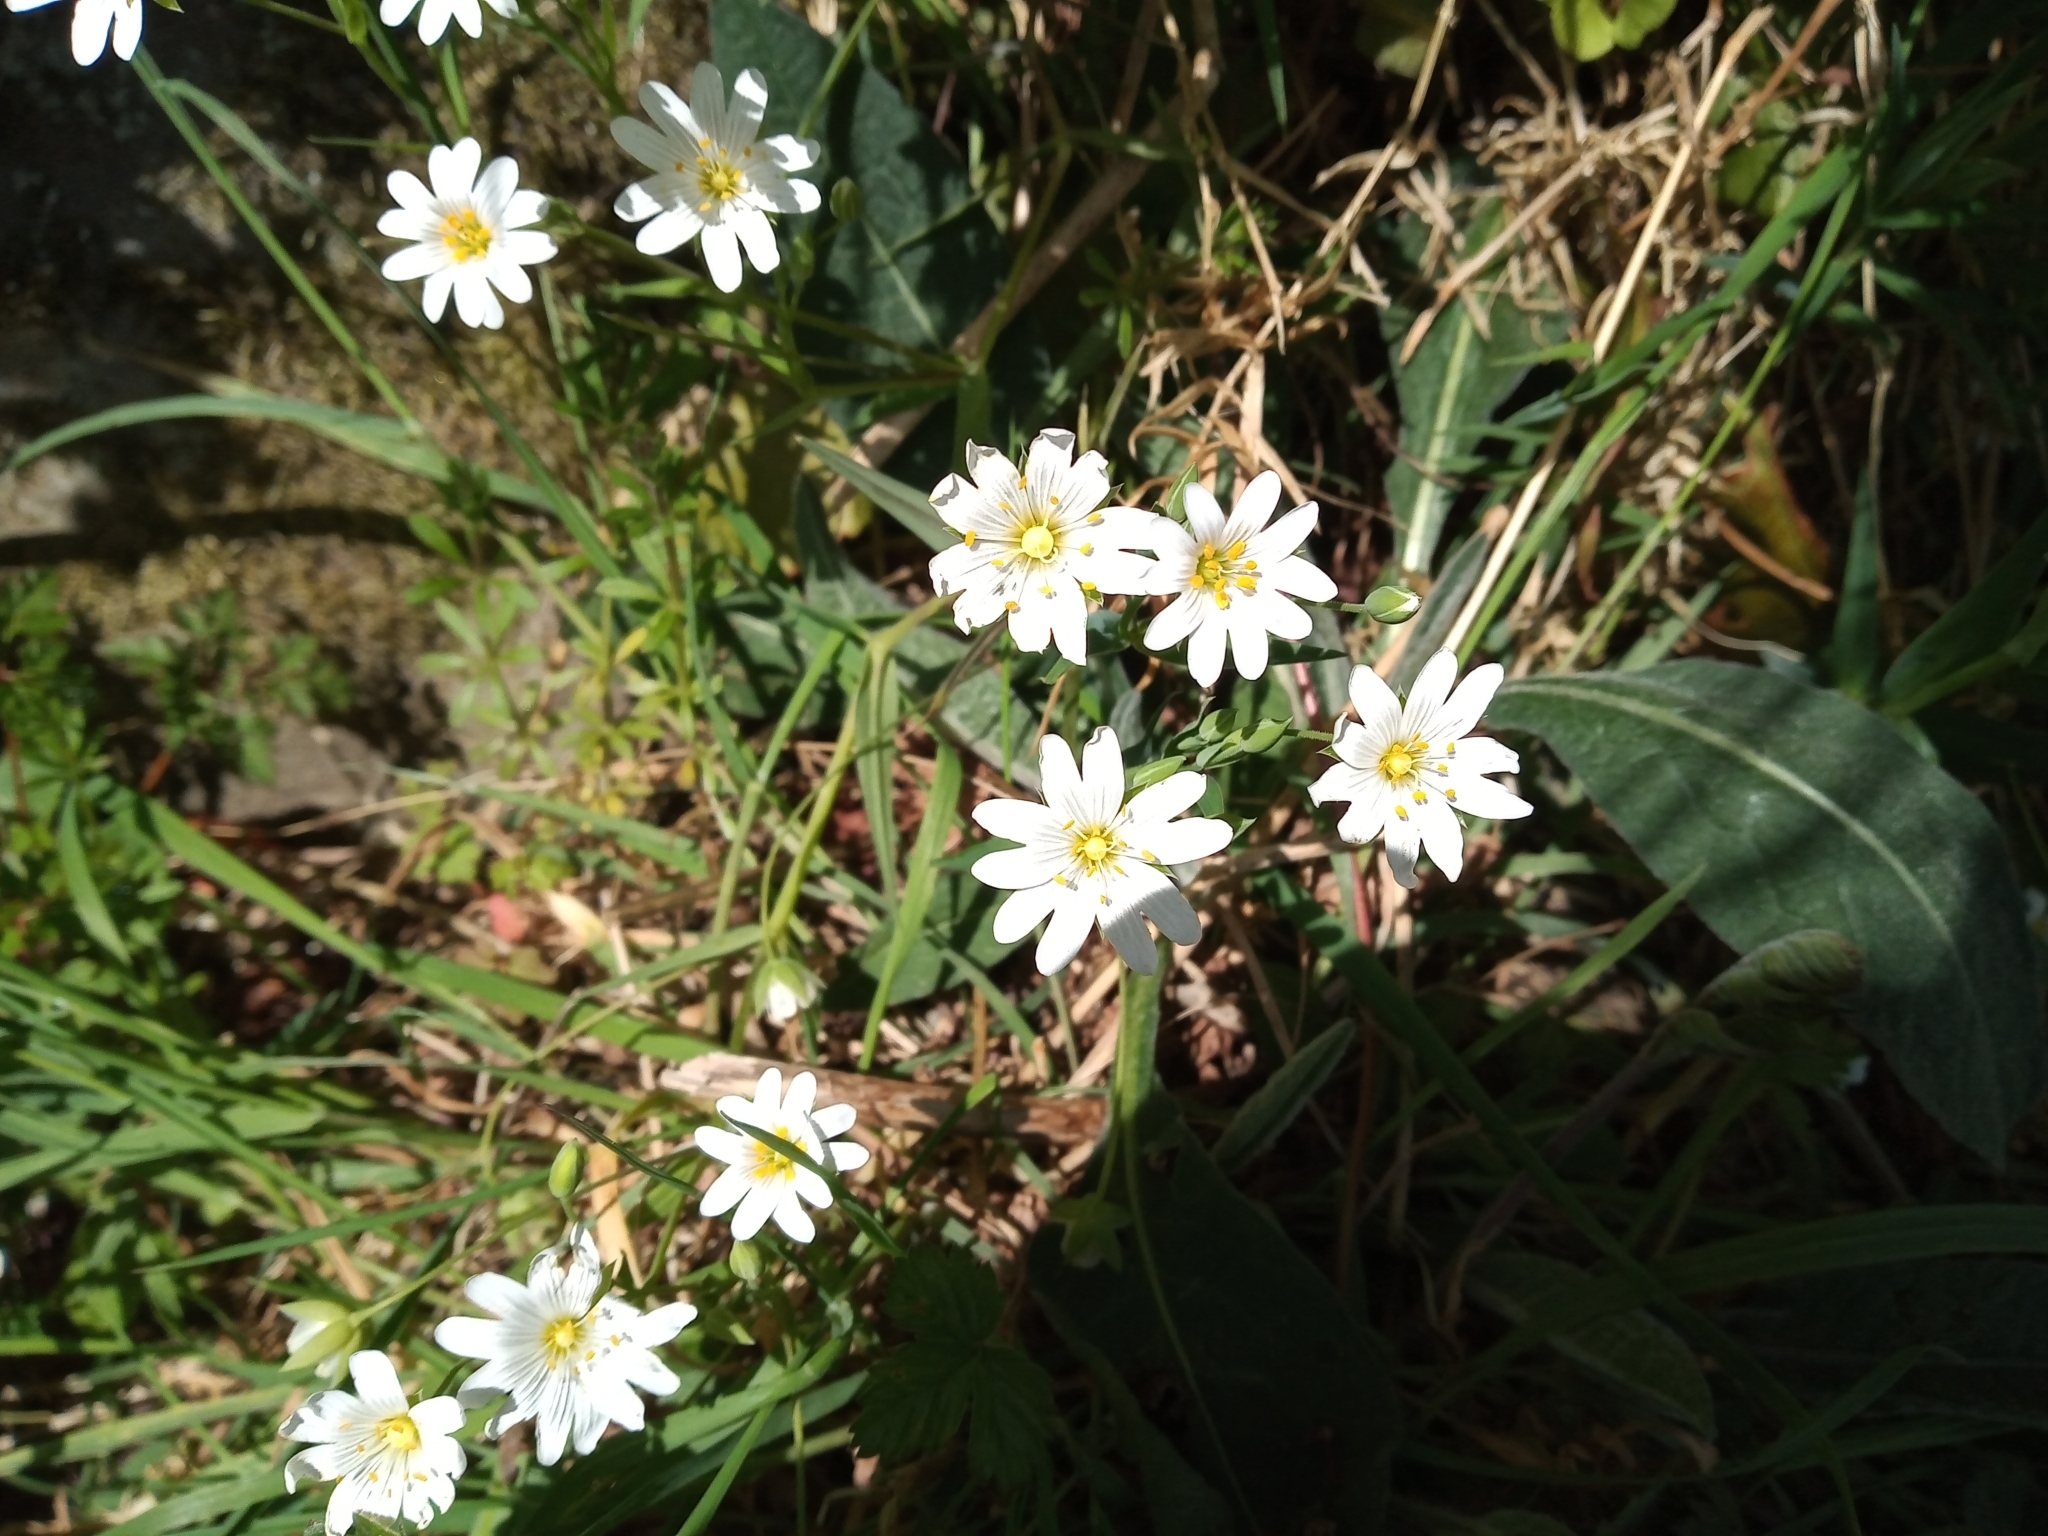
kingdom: Plantae
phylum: Tracheophyta
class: Magnoliopsida
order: Caryophyllales
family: Caryophyllaceae
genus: Rabelera
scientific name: Rabelera holostea
